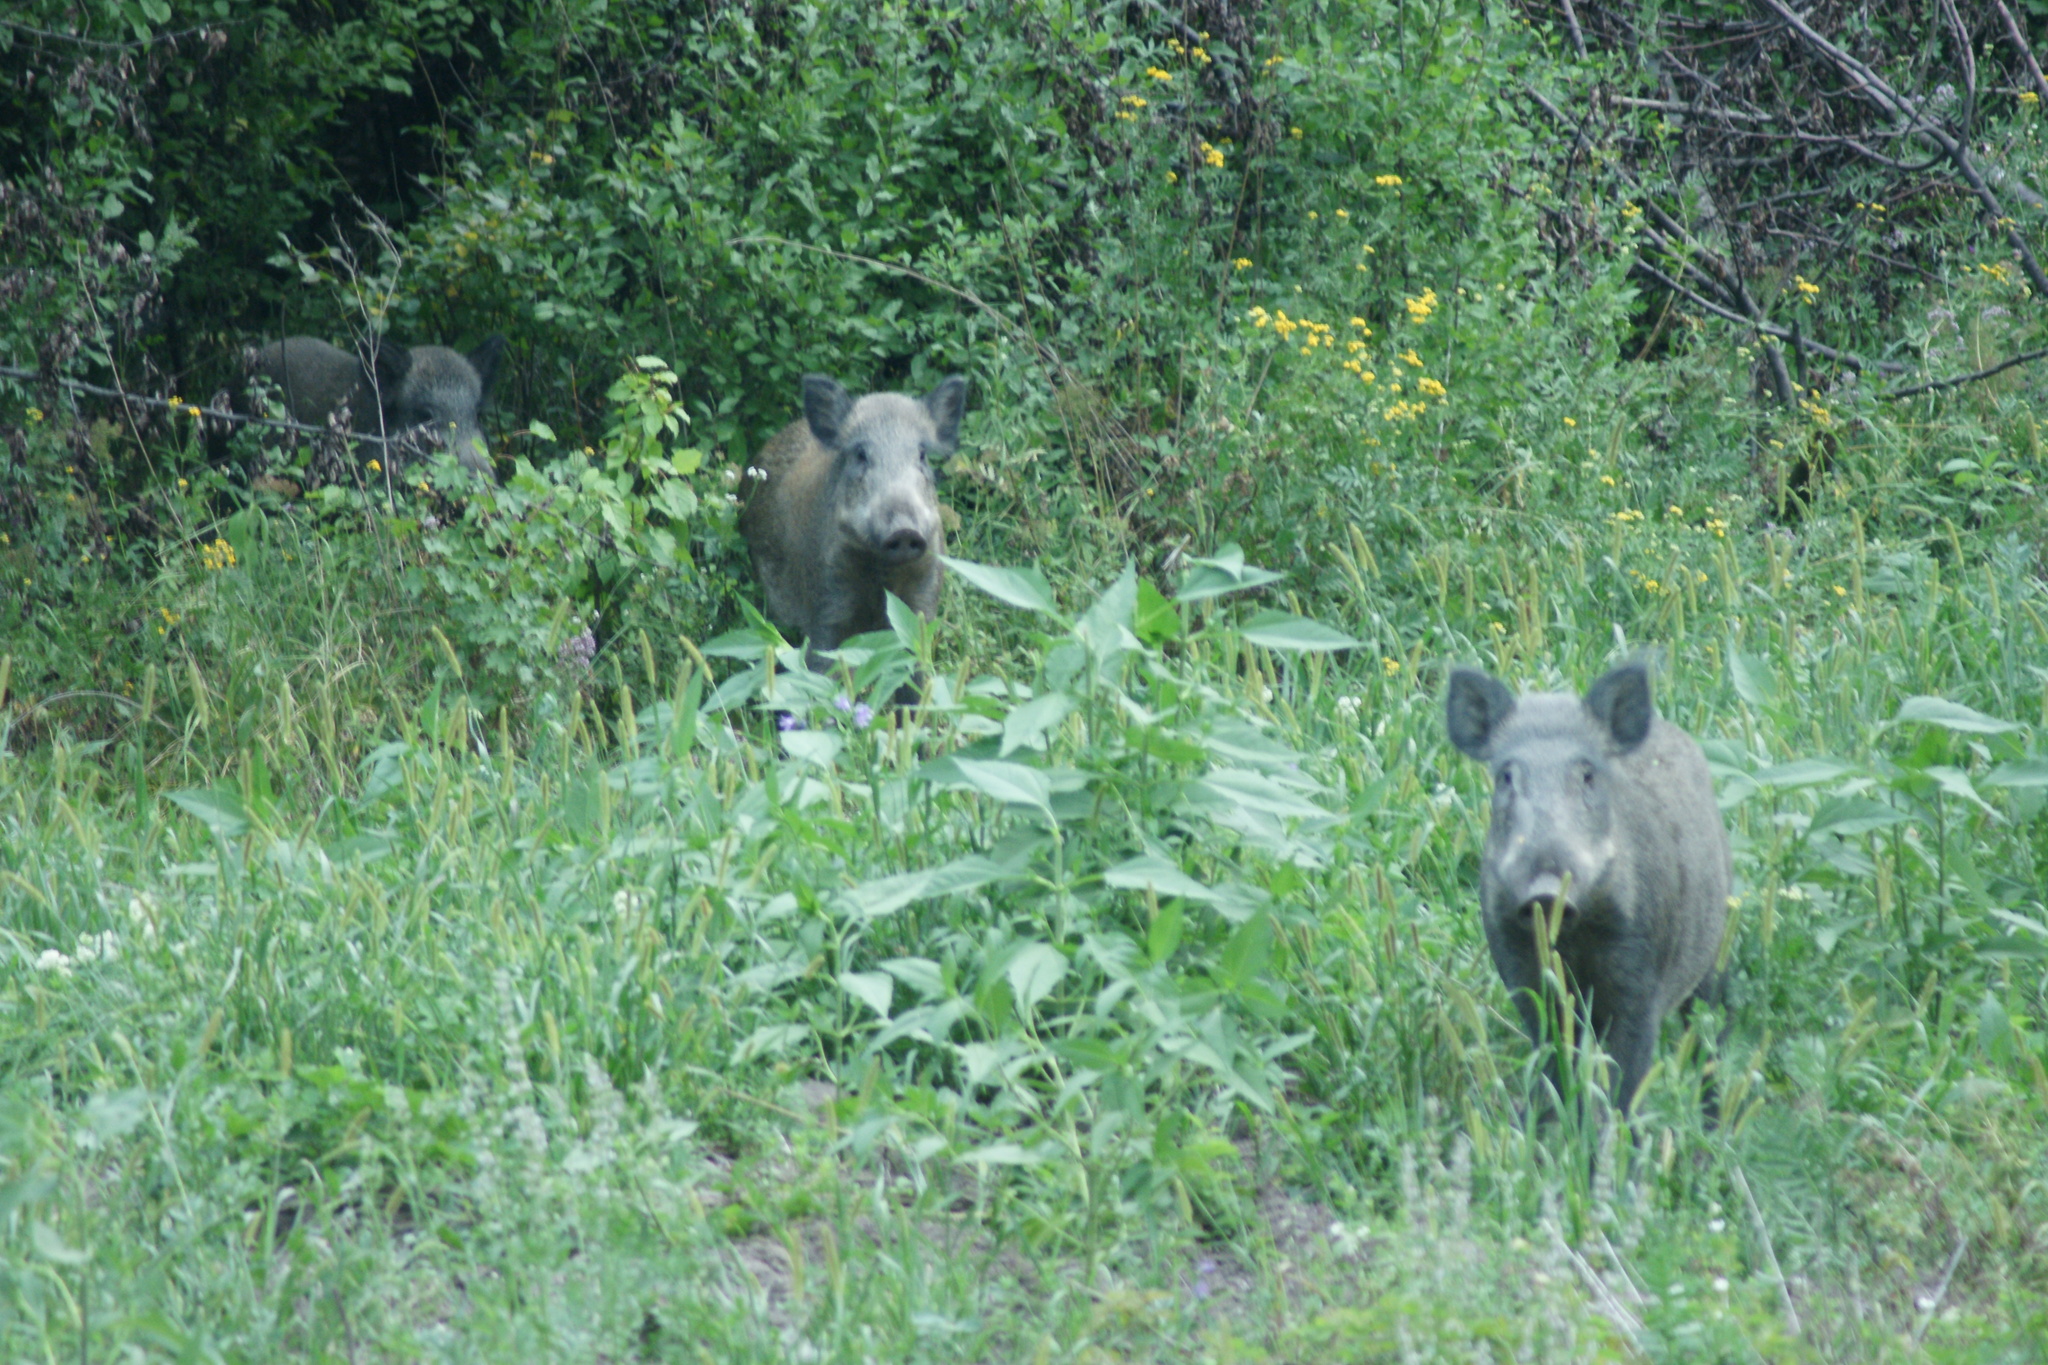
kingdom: Animalia
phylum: Chordata
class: Mammalia
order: Artiodactyla
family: Suidae
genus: Sus
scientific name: Sus scrofa
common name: Wild boar
